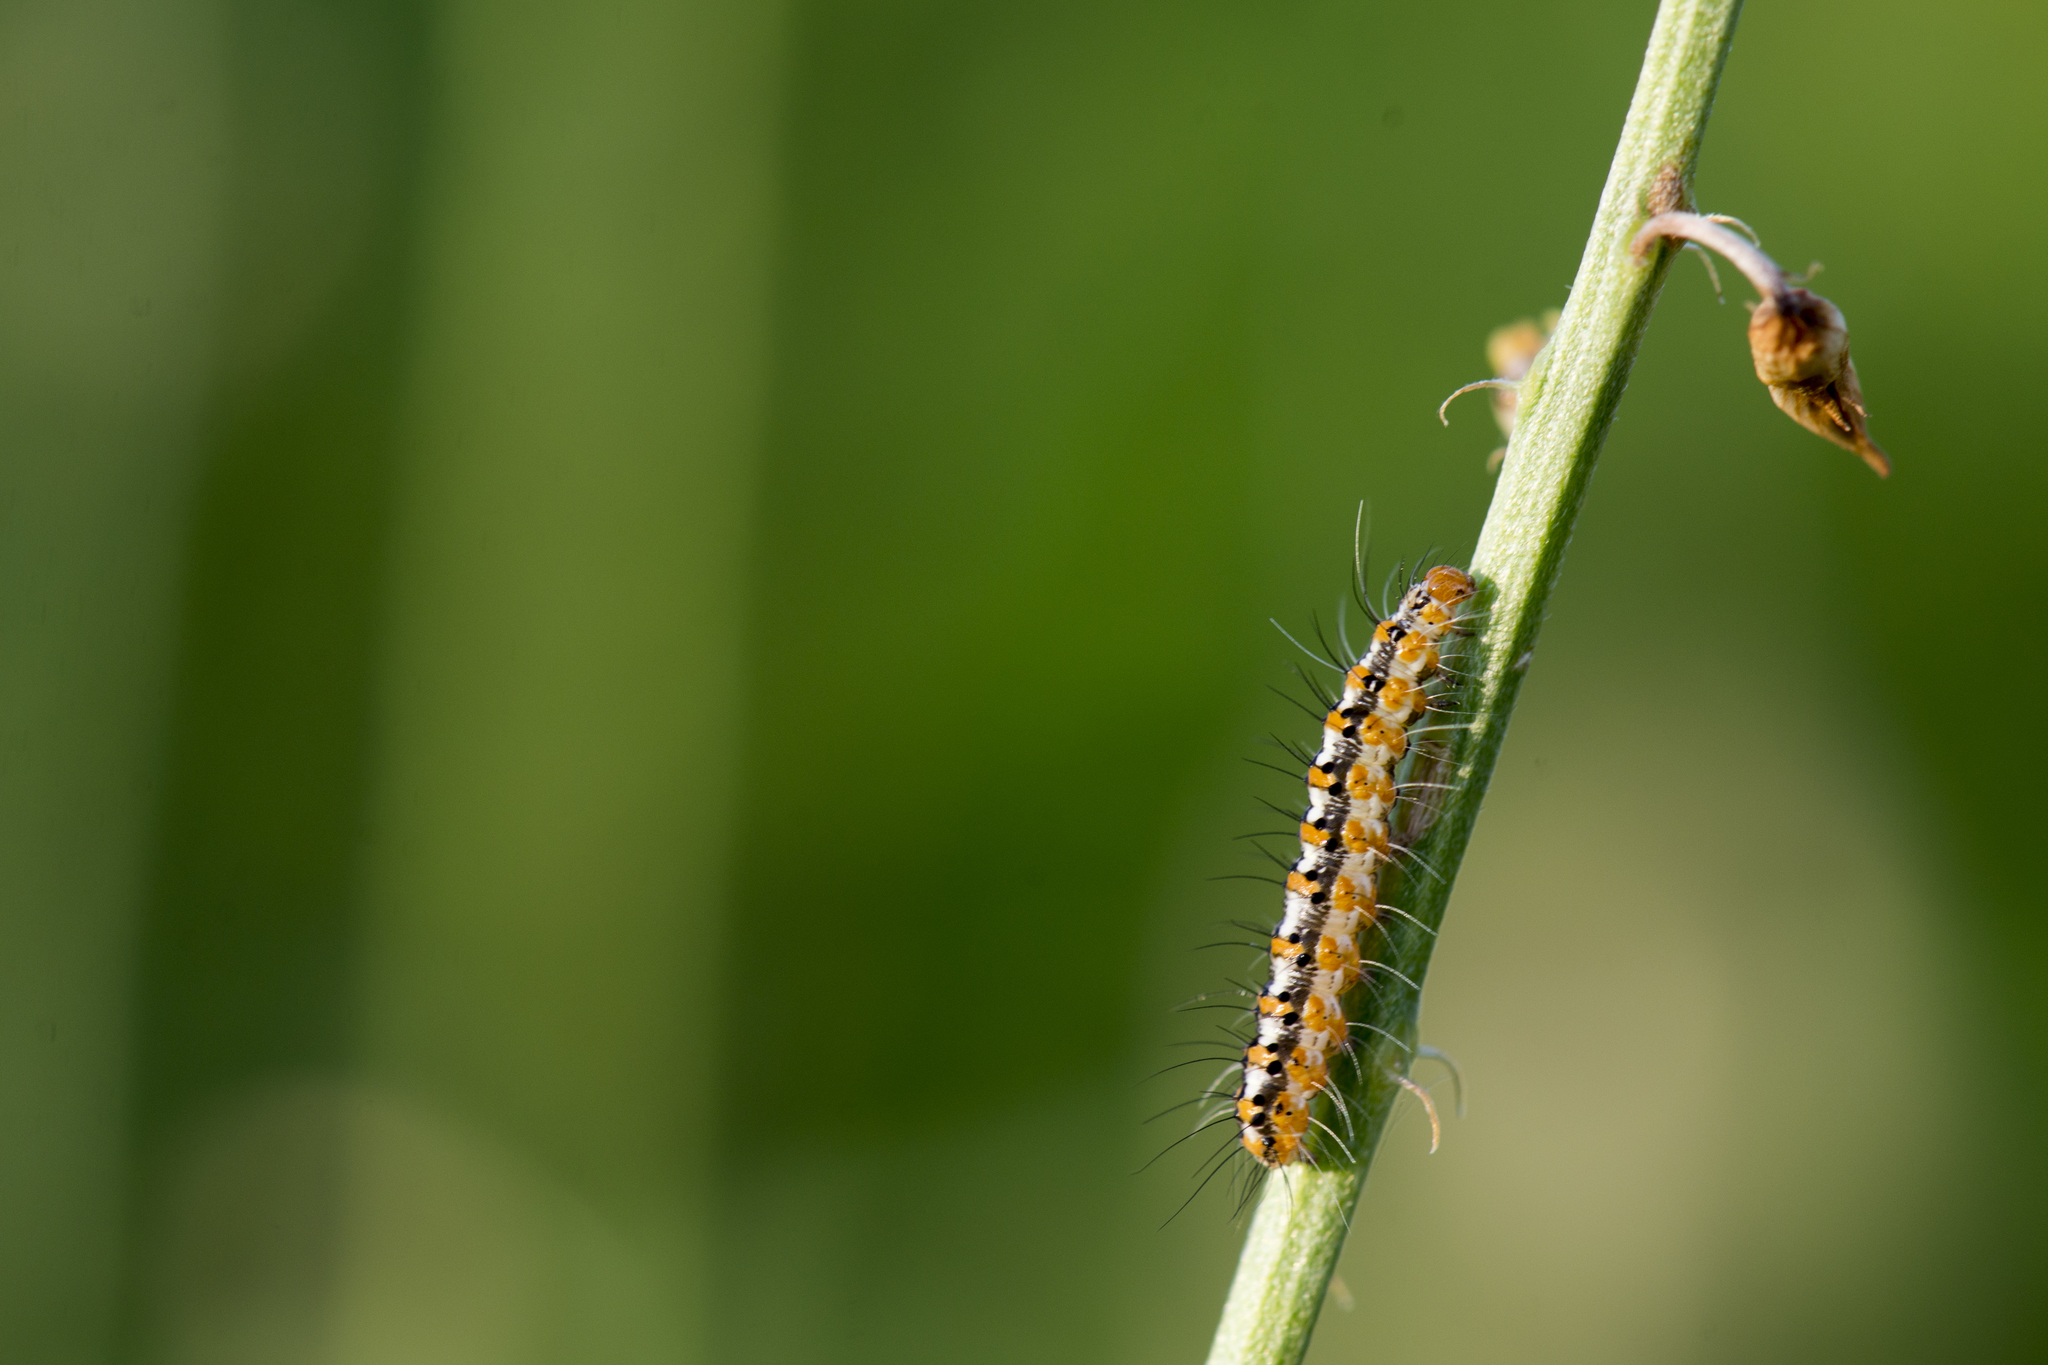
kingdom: Animalia
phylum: Arthropoda
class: Insecta
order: Lepidoptera
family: Erebidae
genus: Utetheisa
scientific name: Utetheisa lotrix
